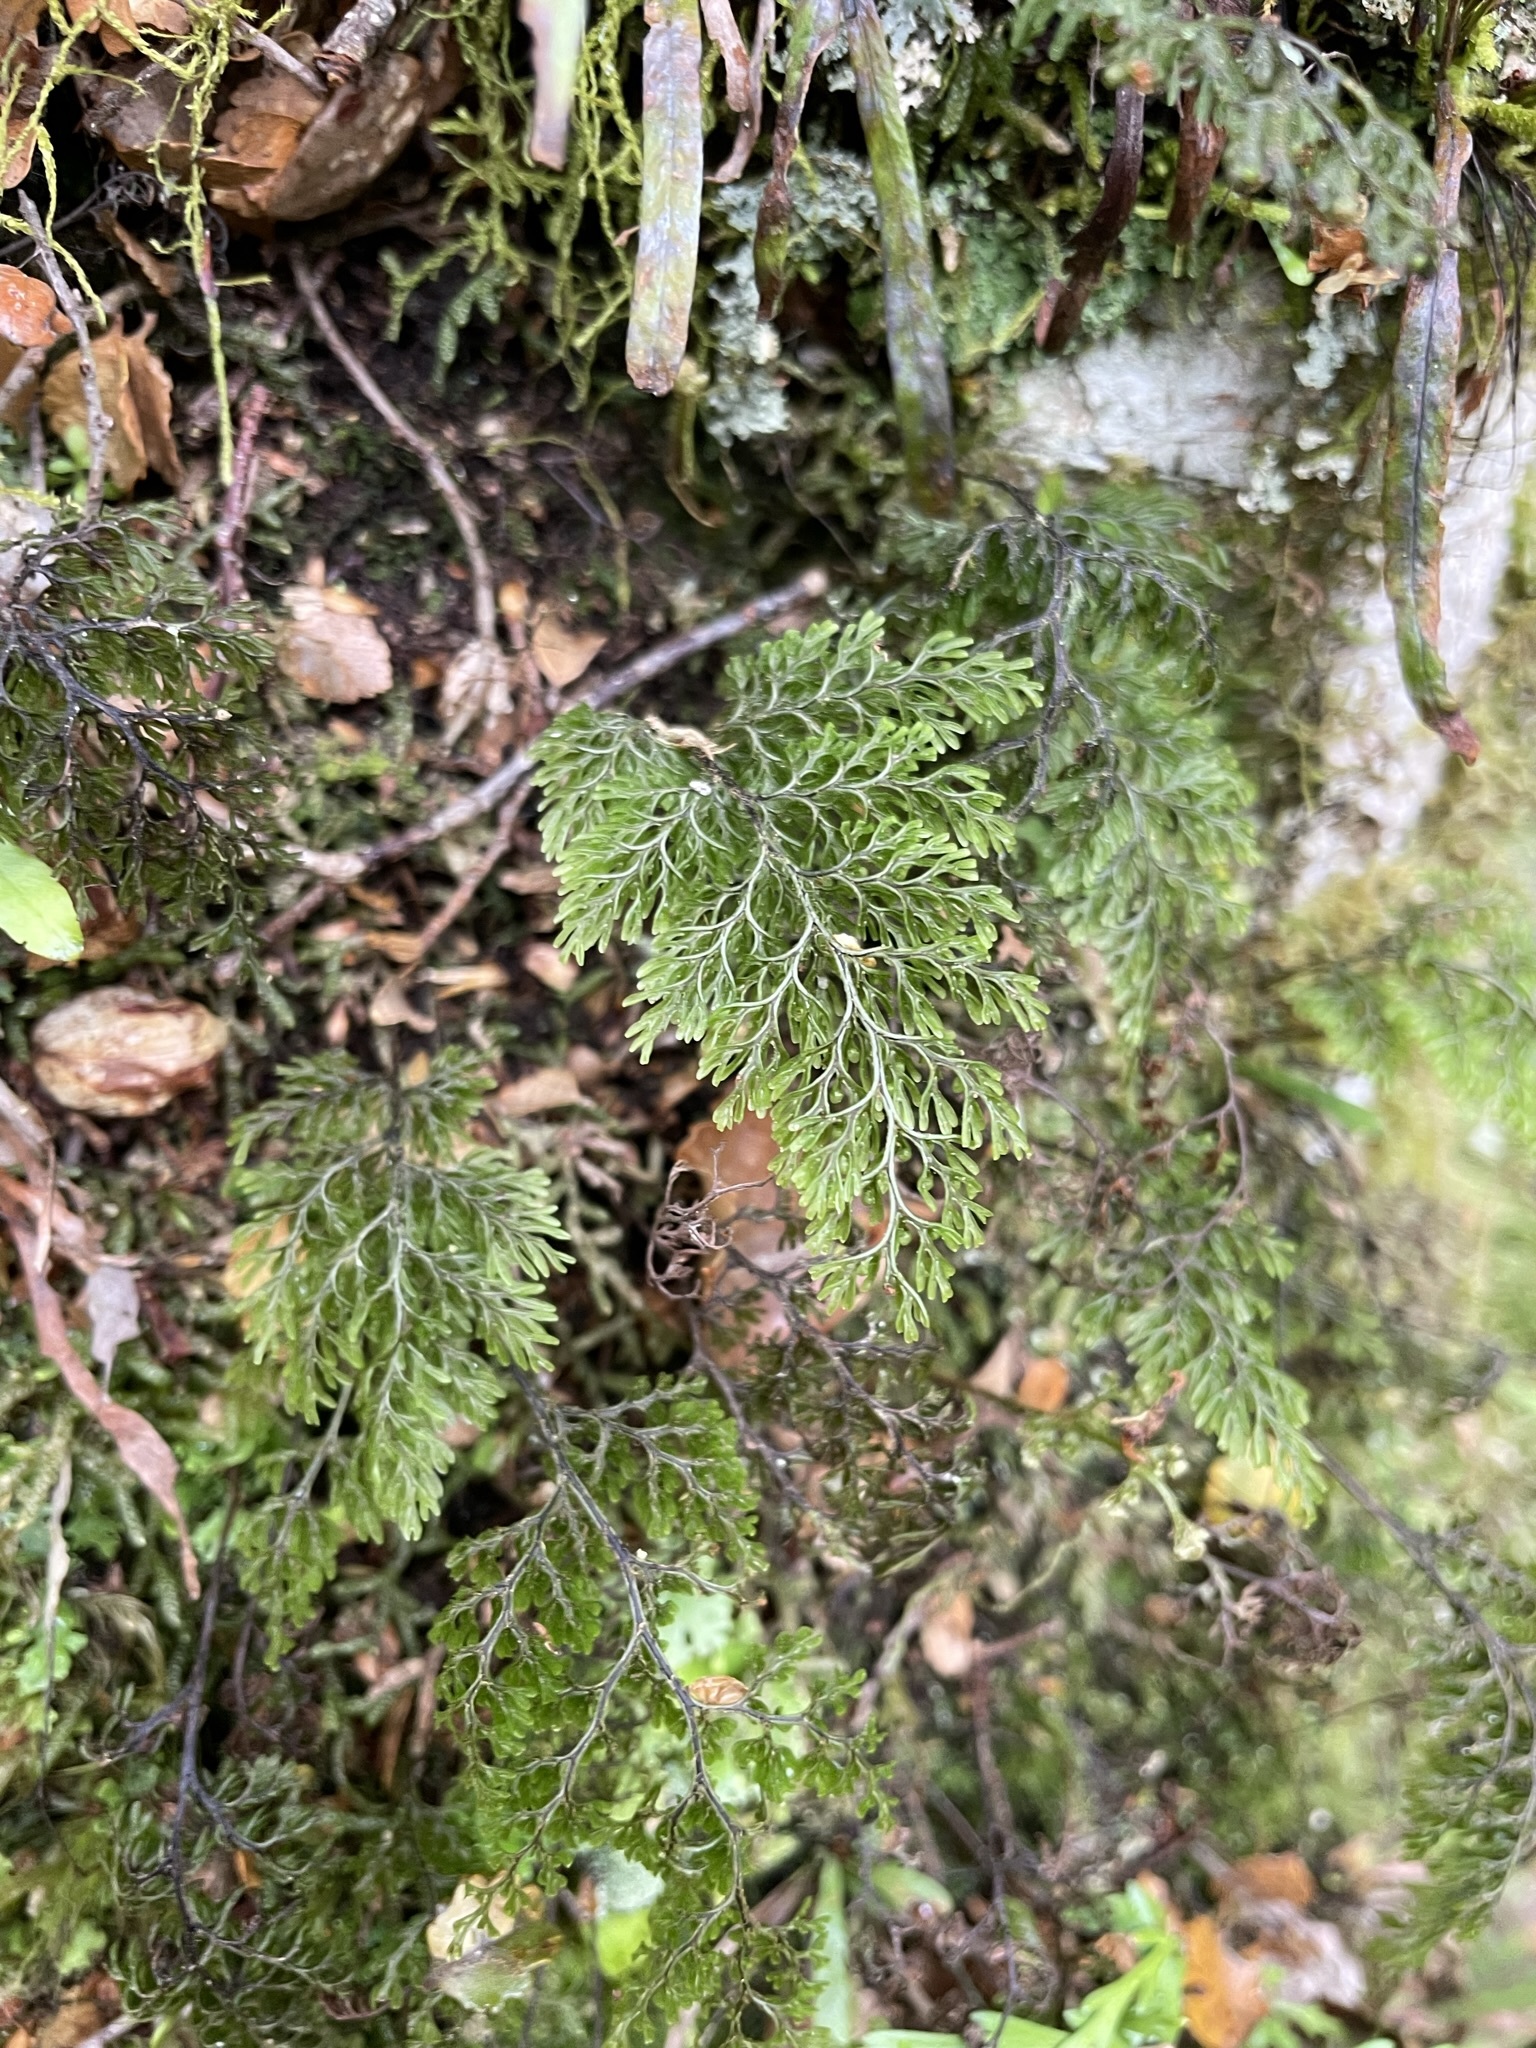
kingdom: Plantae
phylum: Tracheophyta
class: Polypodiopsida
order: Hymenophyllales
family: Hymenophyllaceae
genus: Hymenophyllum
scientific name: Hymenophyllum villosum
